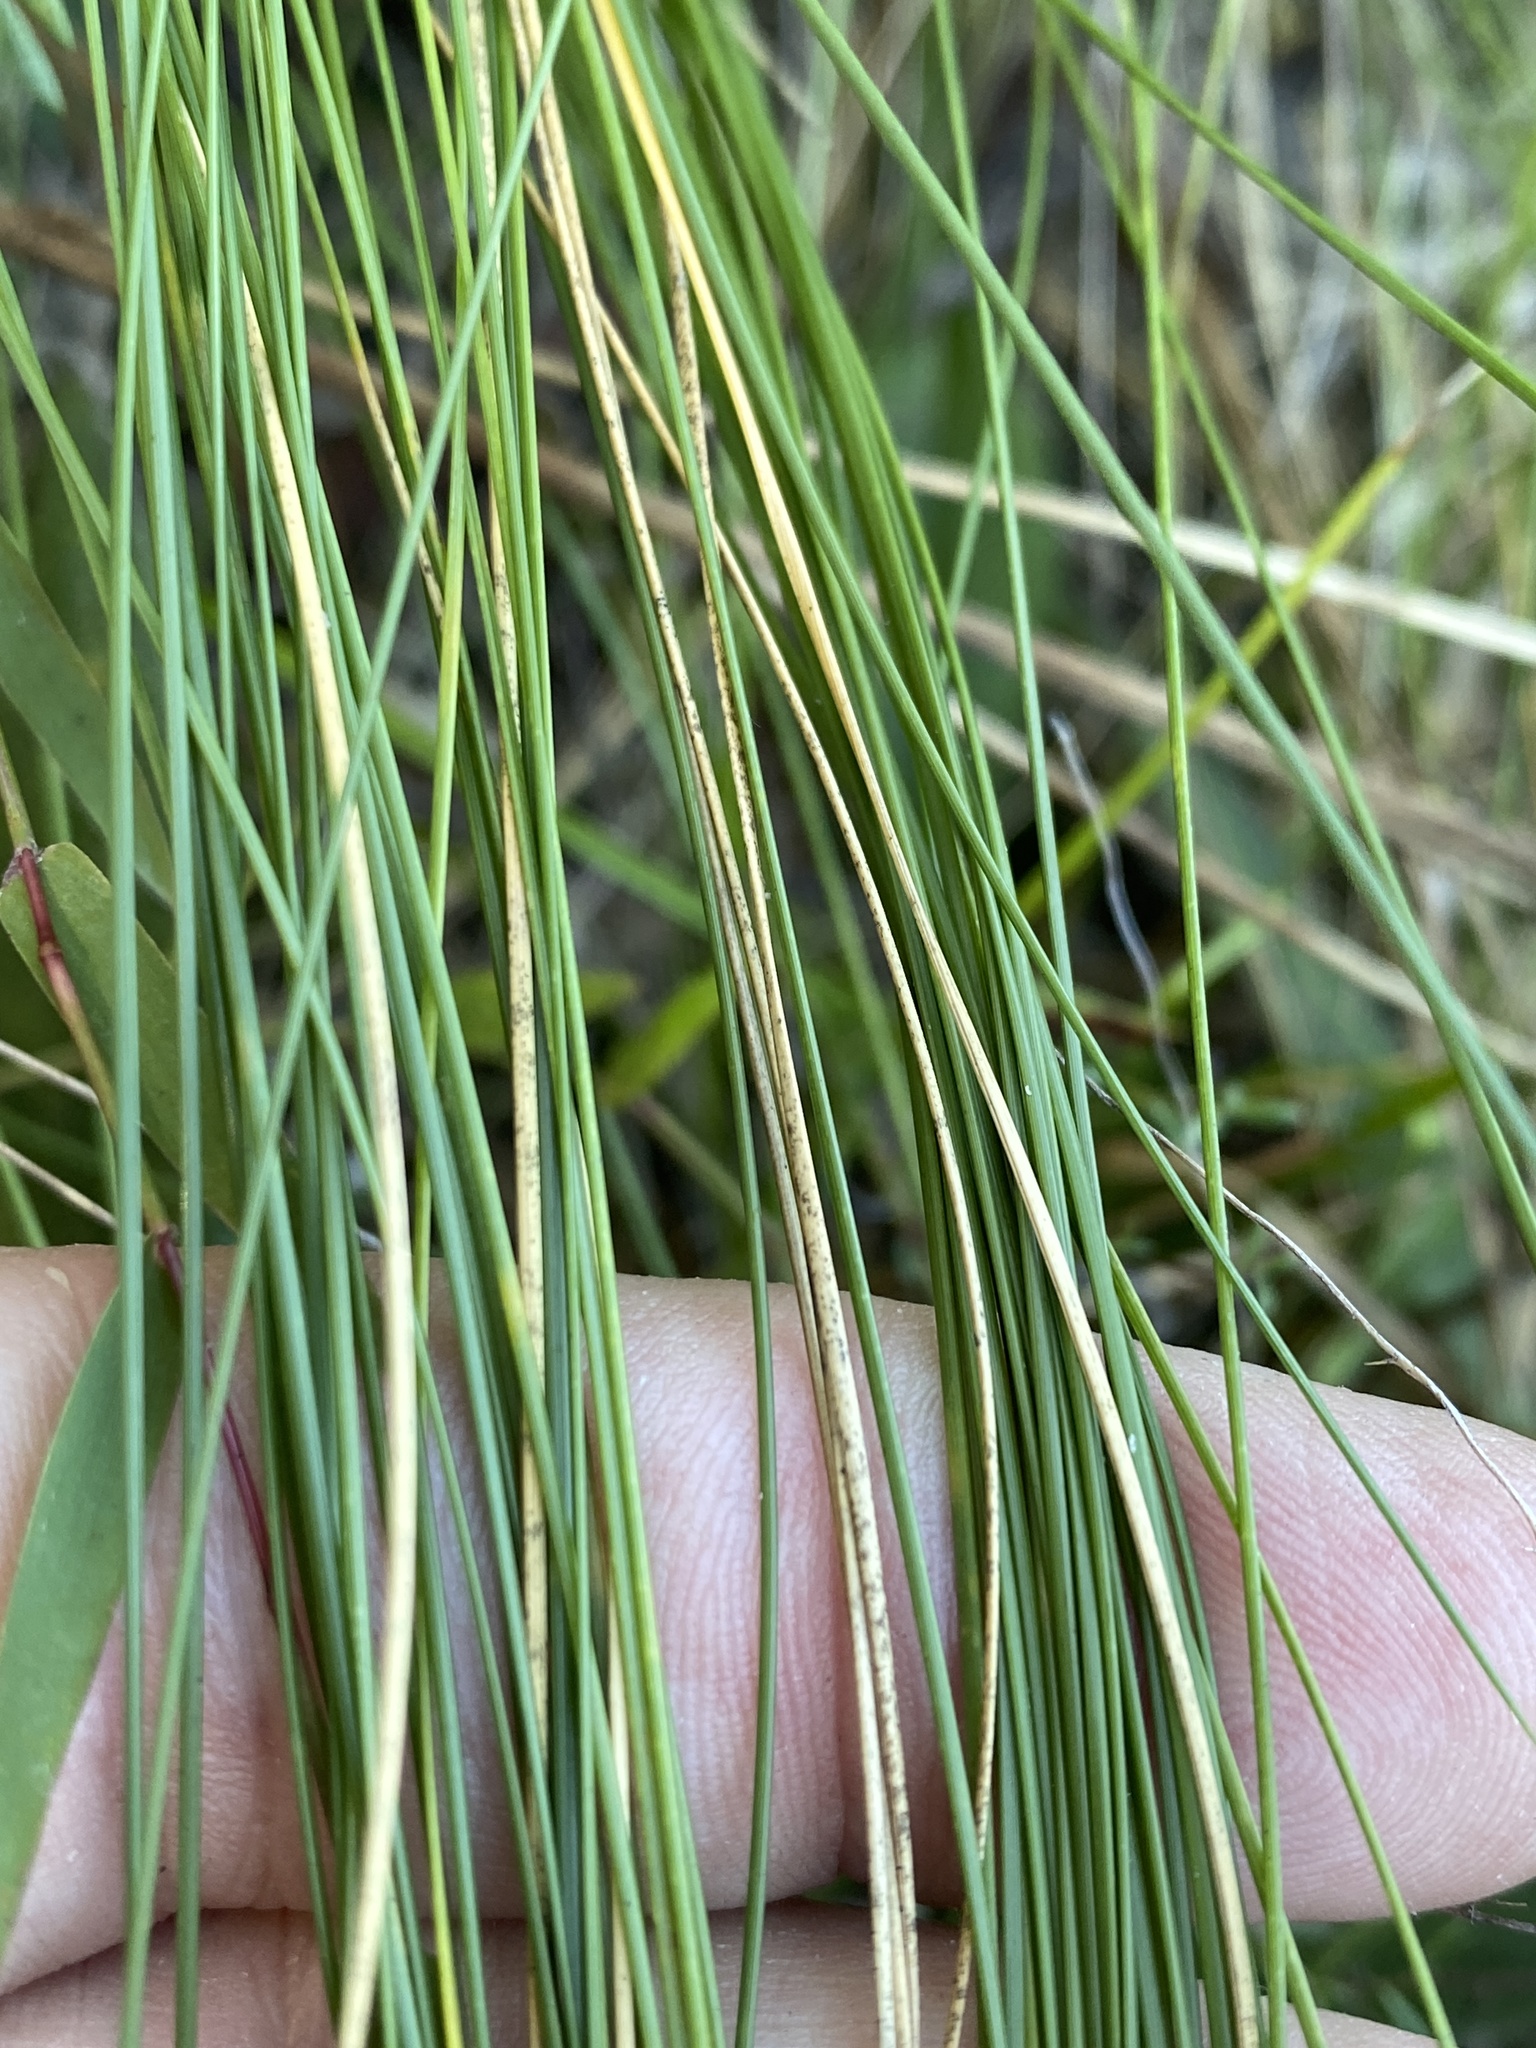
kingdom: Plantae
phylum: Tracheophyta
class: Liliopsida
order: Poales
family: Poaceae
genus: Sporobolus
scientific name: Sporobolus teretifolius
